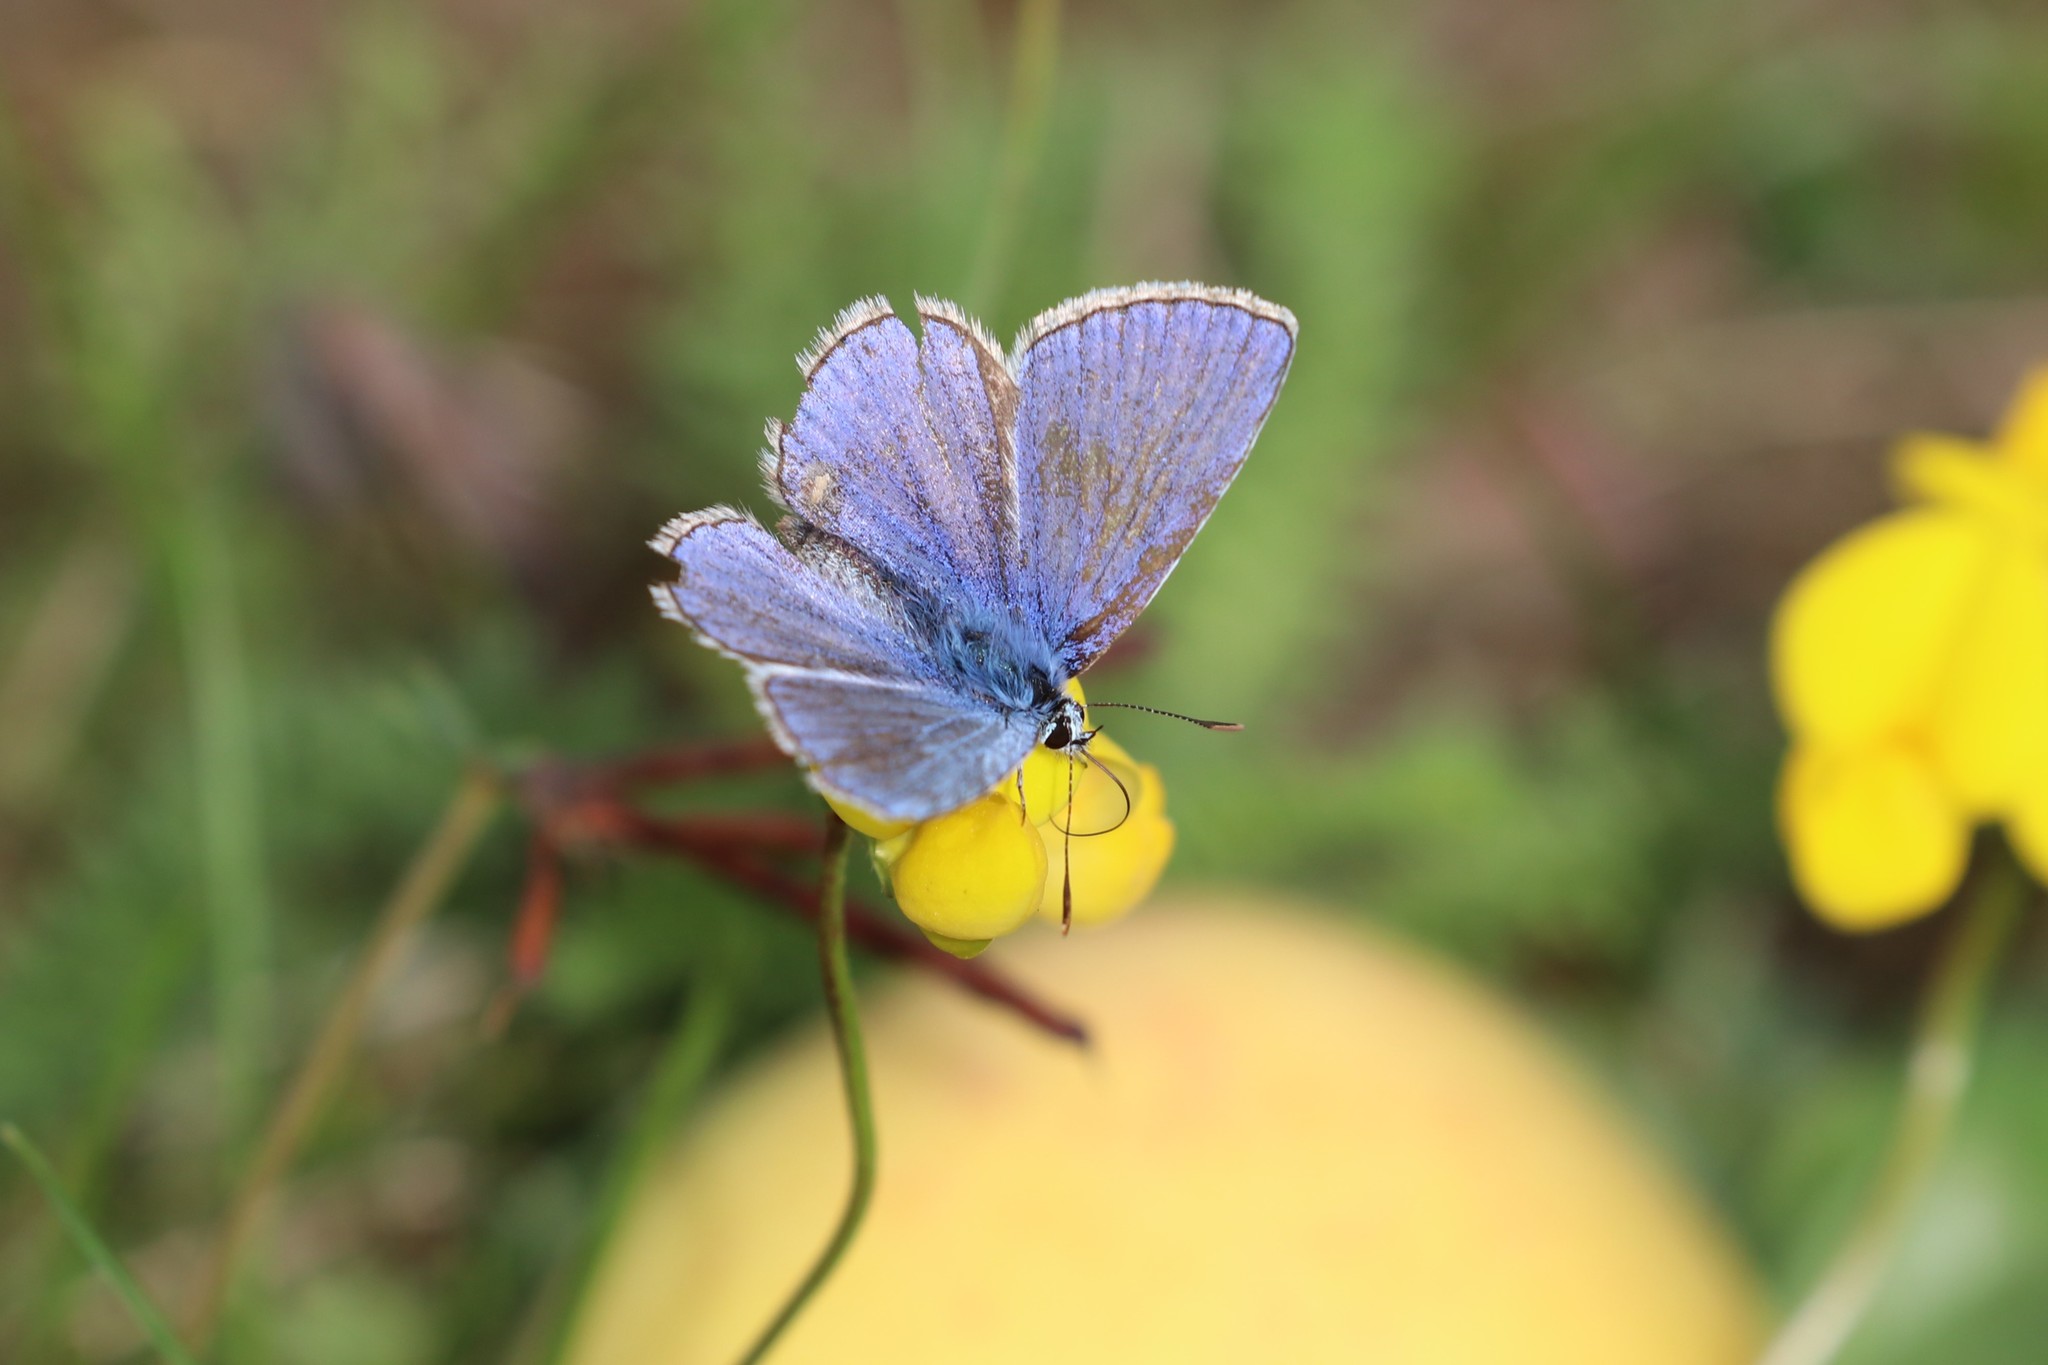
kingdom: Animalia
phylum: Arthropoda
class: Insecta
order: Lepidoptera
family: Lycaenidae
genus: Polyommatus
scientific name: Polyommatus icarus
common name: Common blue
